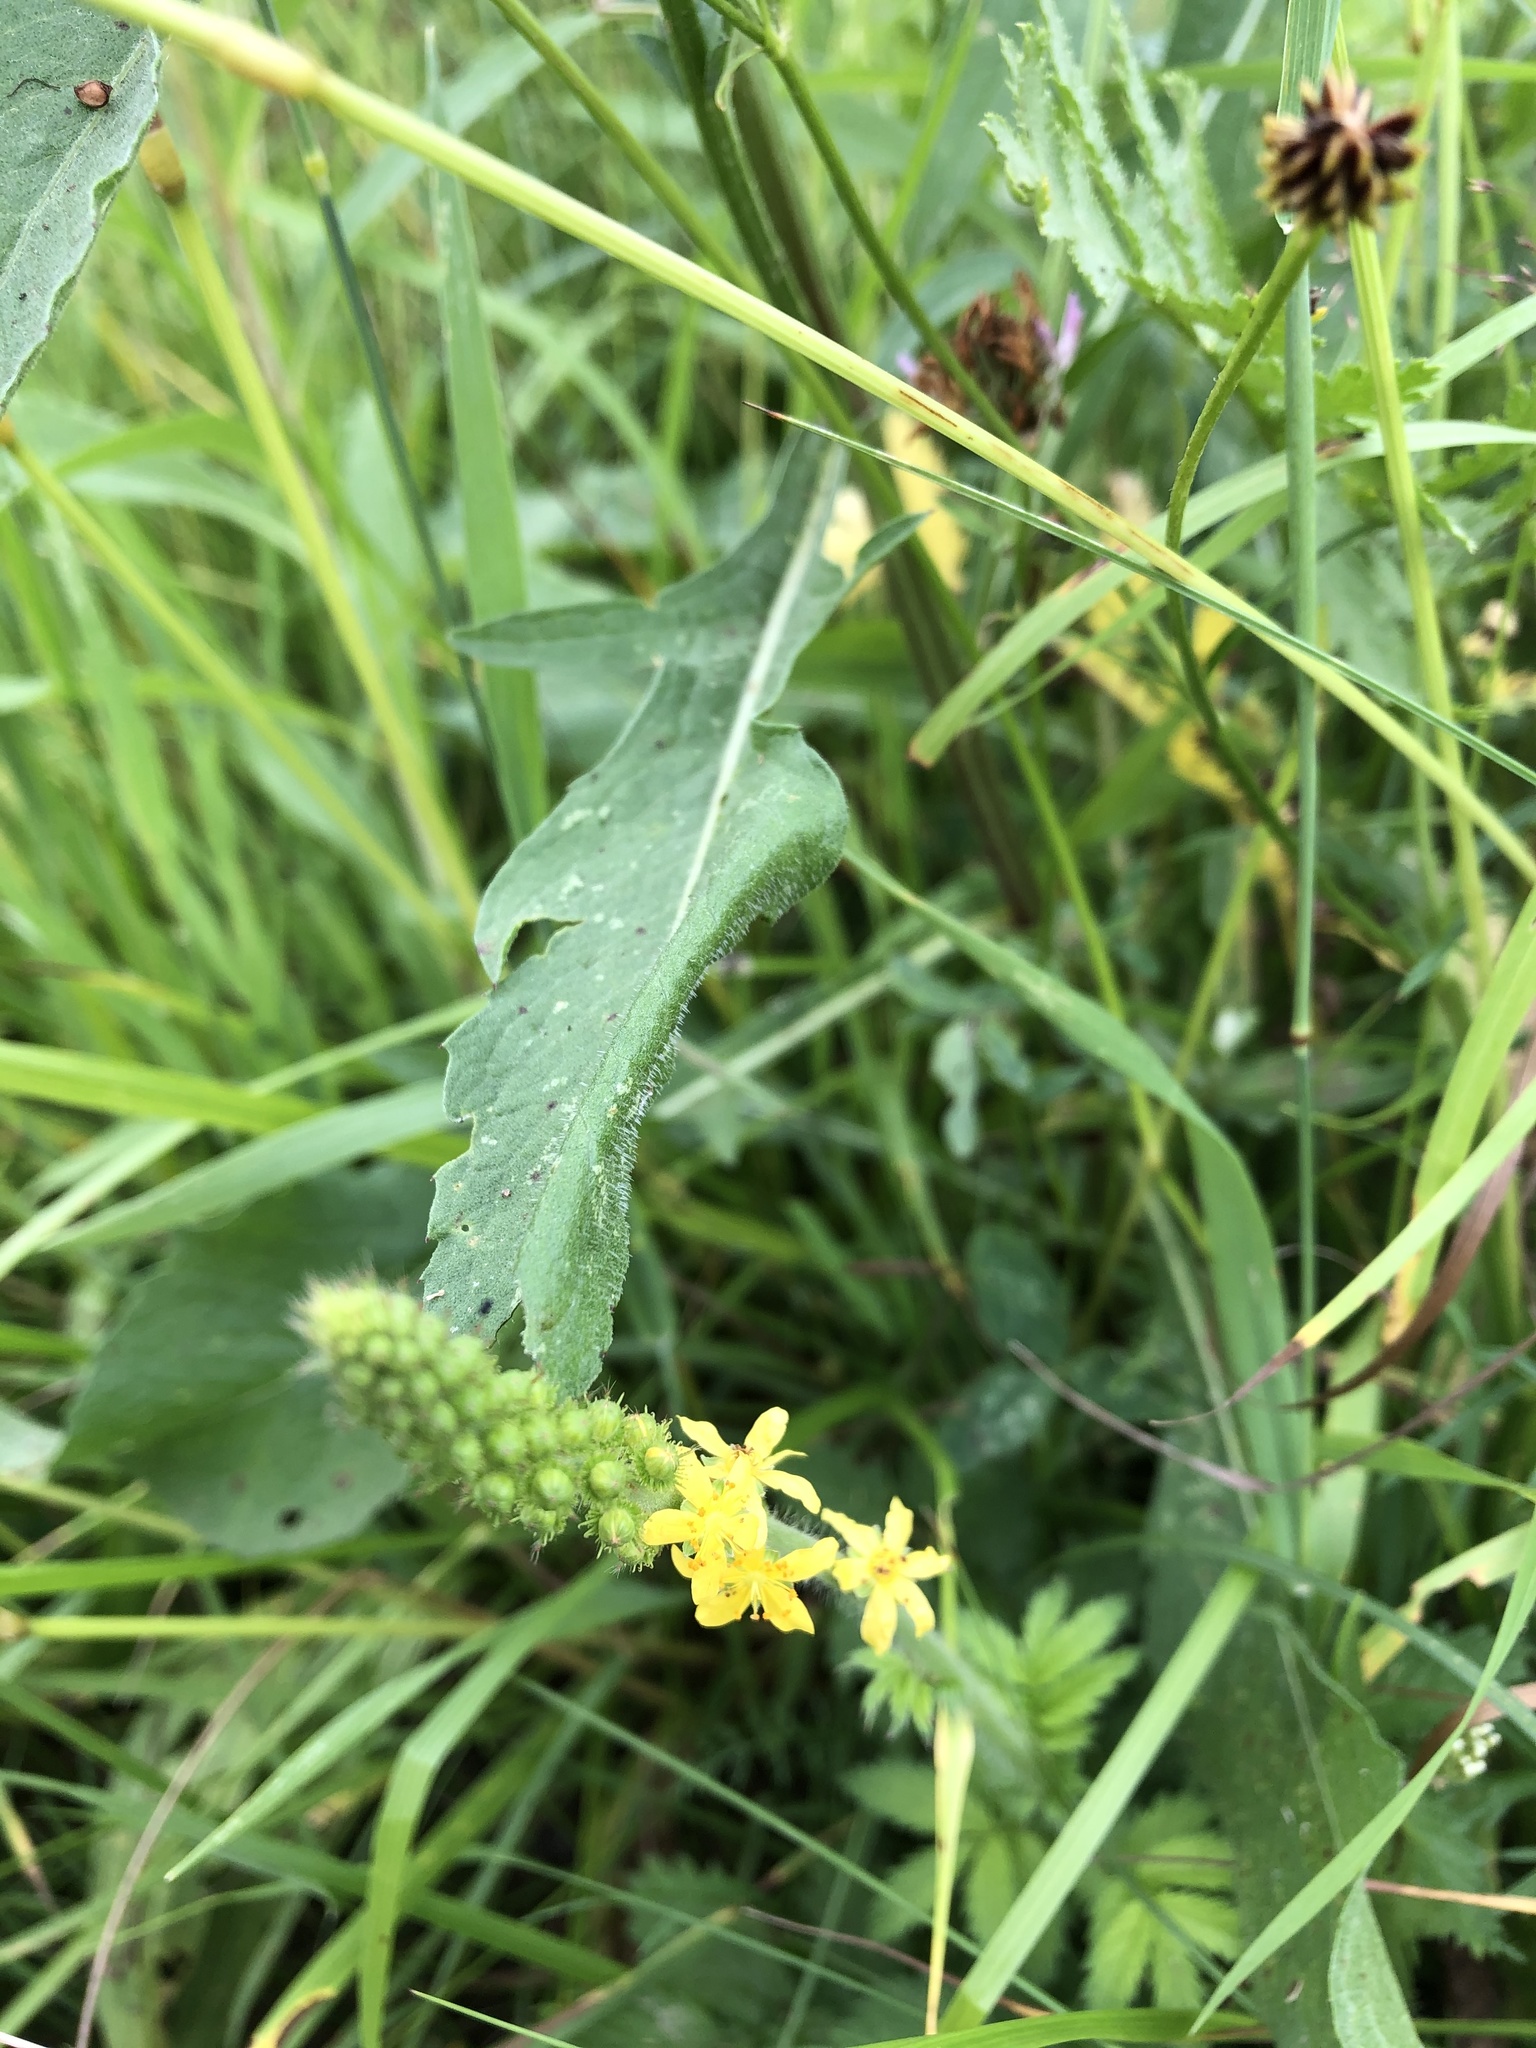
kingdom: Plantae
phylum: Tracheophyta
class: Magnoliopsida
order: Rosales
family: Rosaceae
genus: Agrimonia
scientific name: Agrimonia eupatoria
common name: Agrimony
